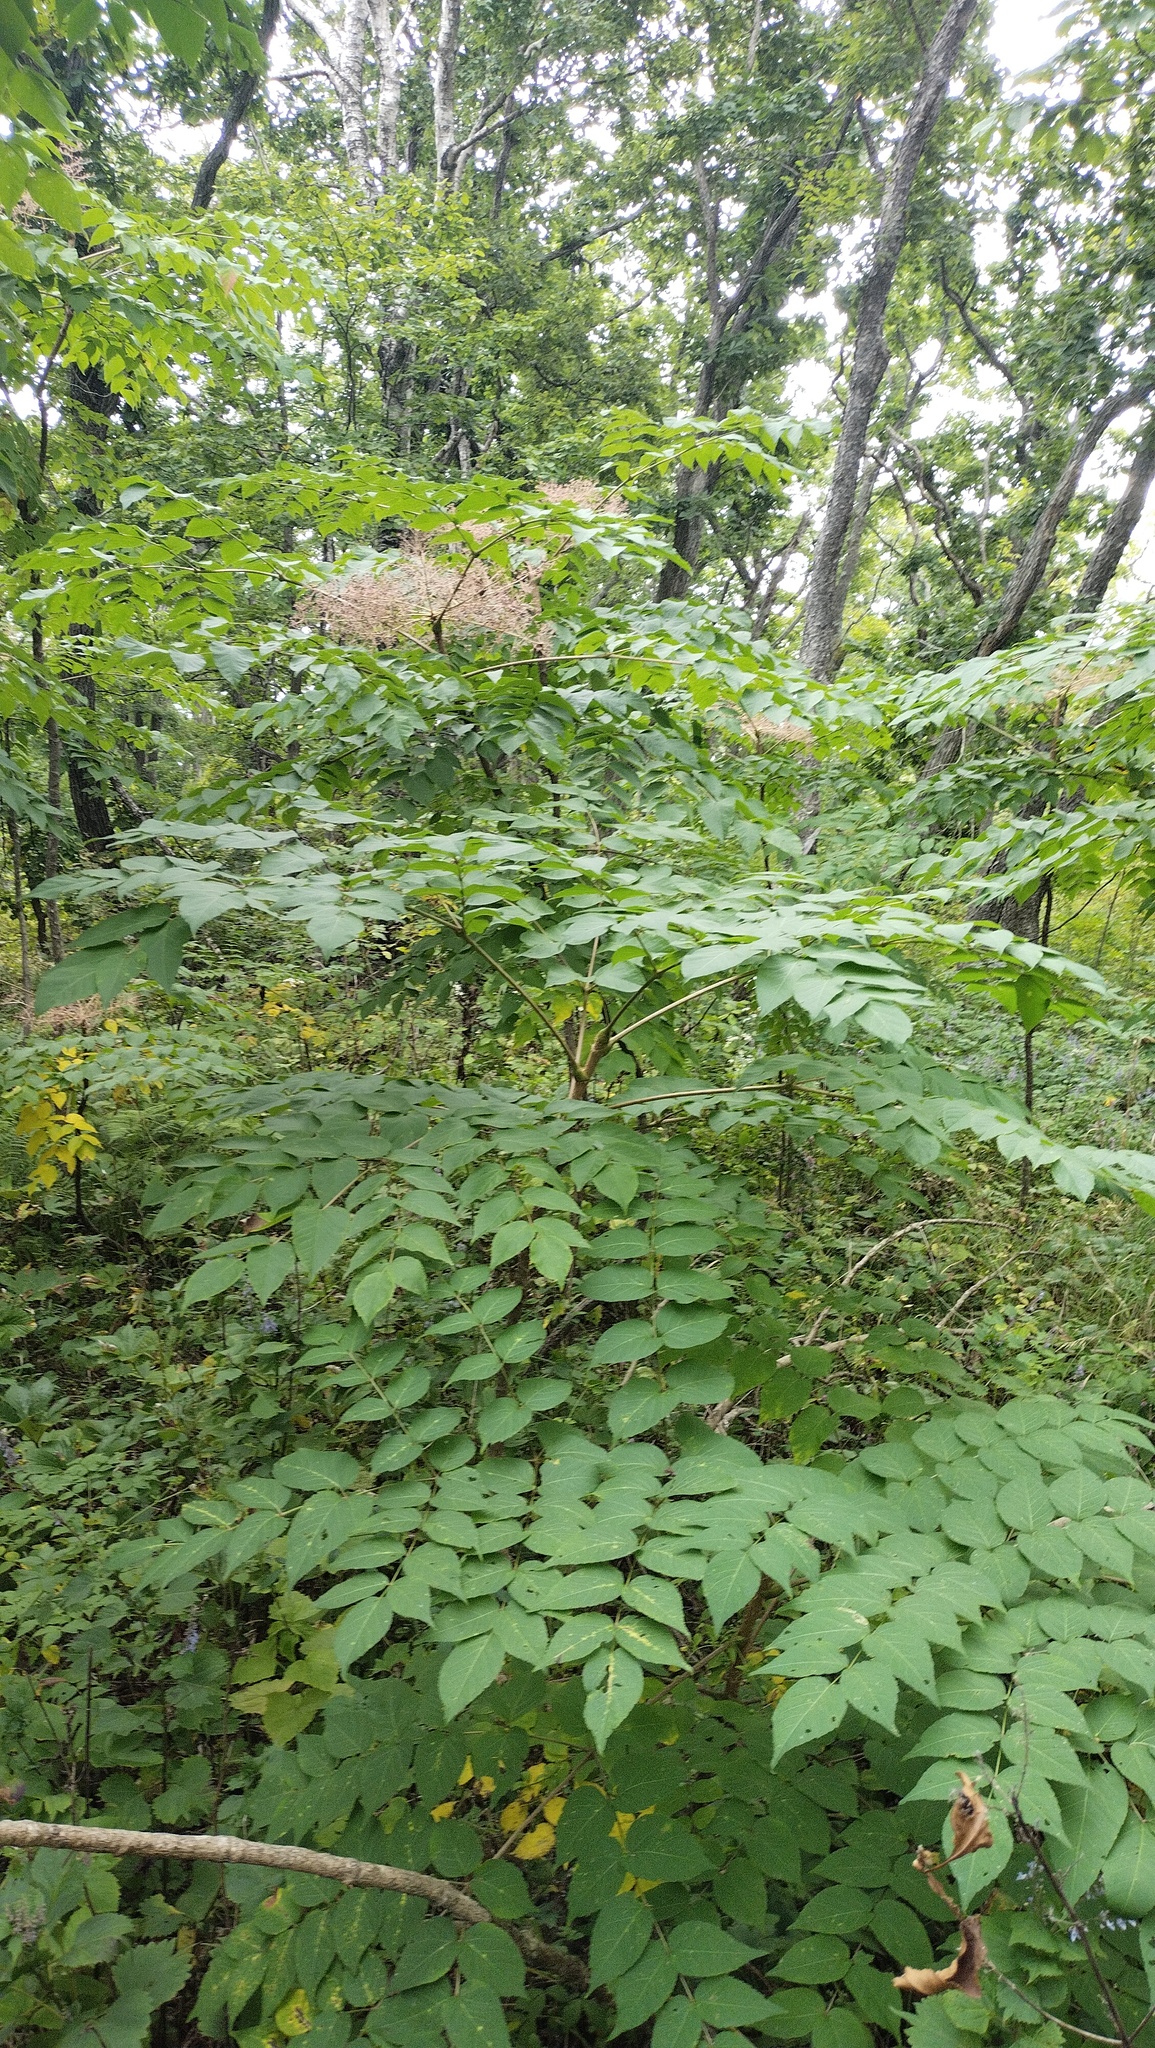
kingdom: Plantae
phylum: Tracheophyta
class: Magnoliopsida
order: Apiales
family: Araliaceae
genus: Aralia
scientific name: Aralia elata
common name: Japanese angelica-tree
